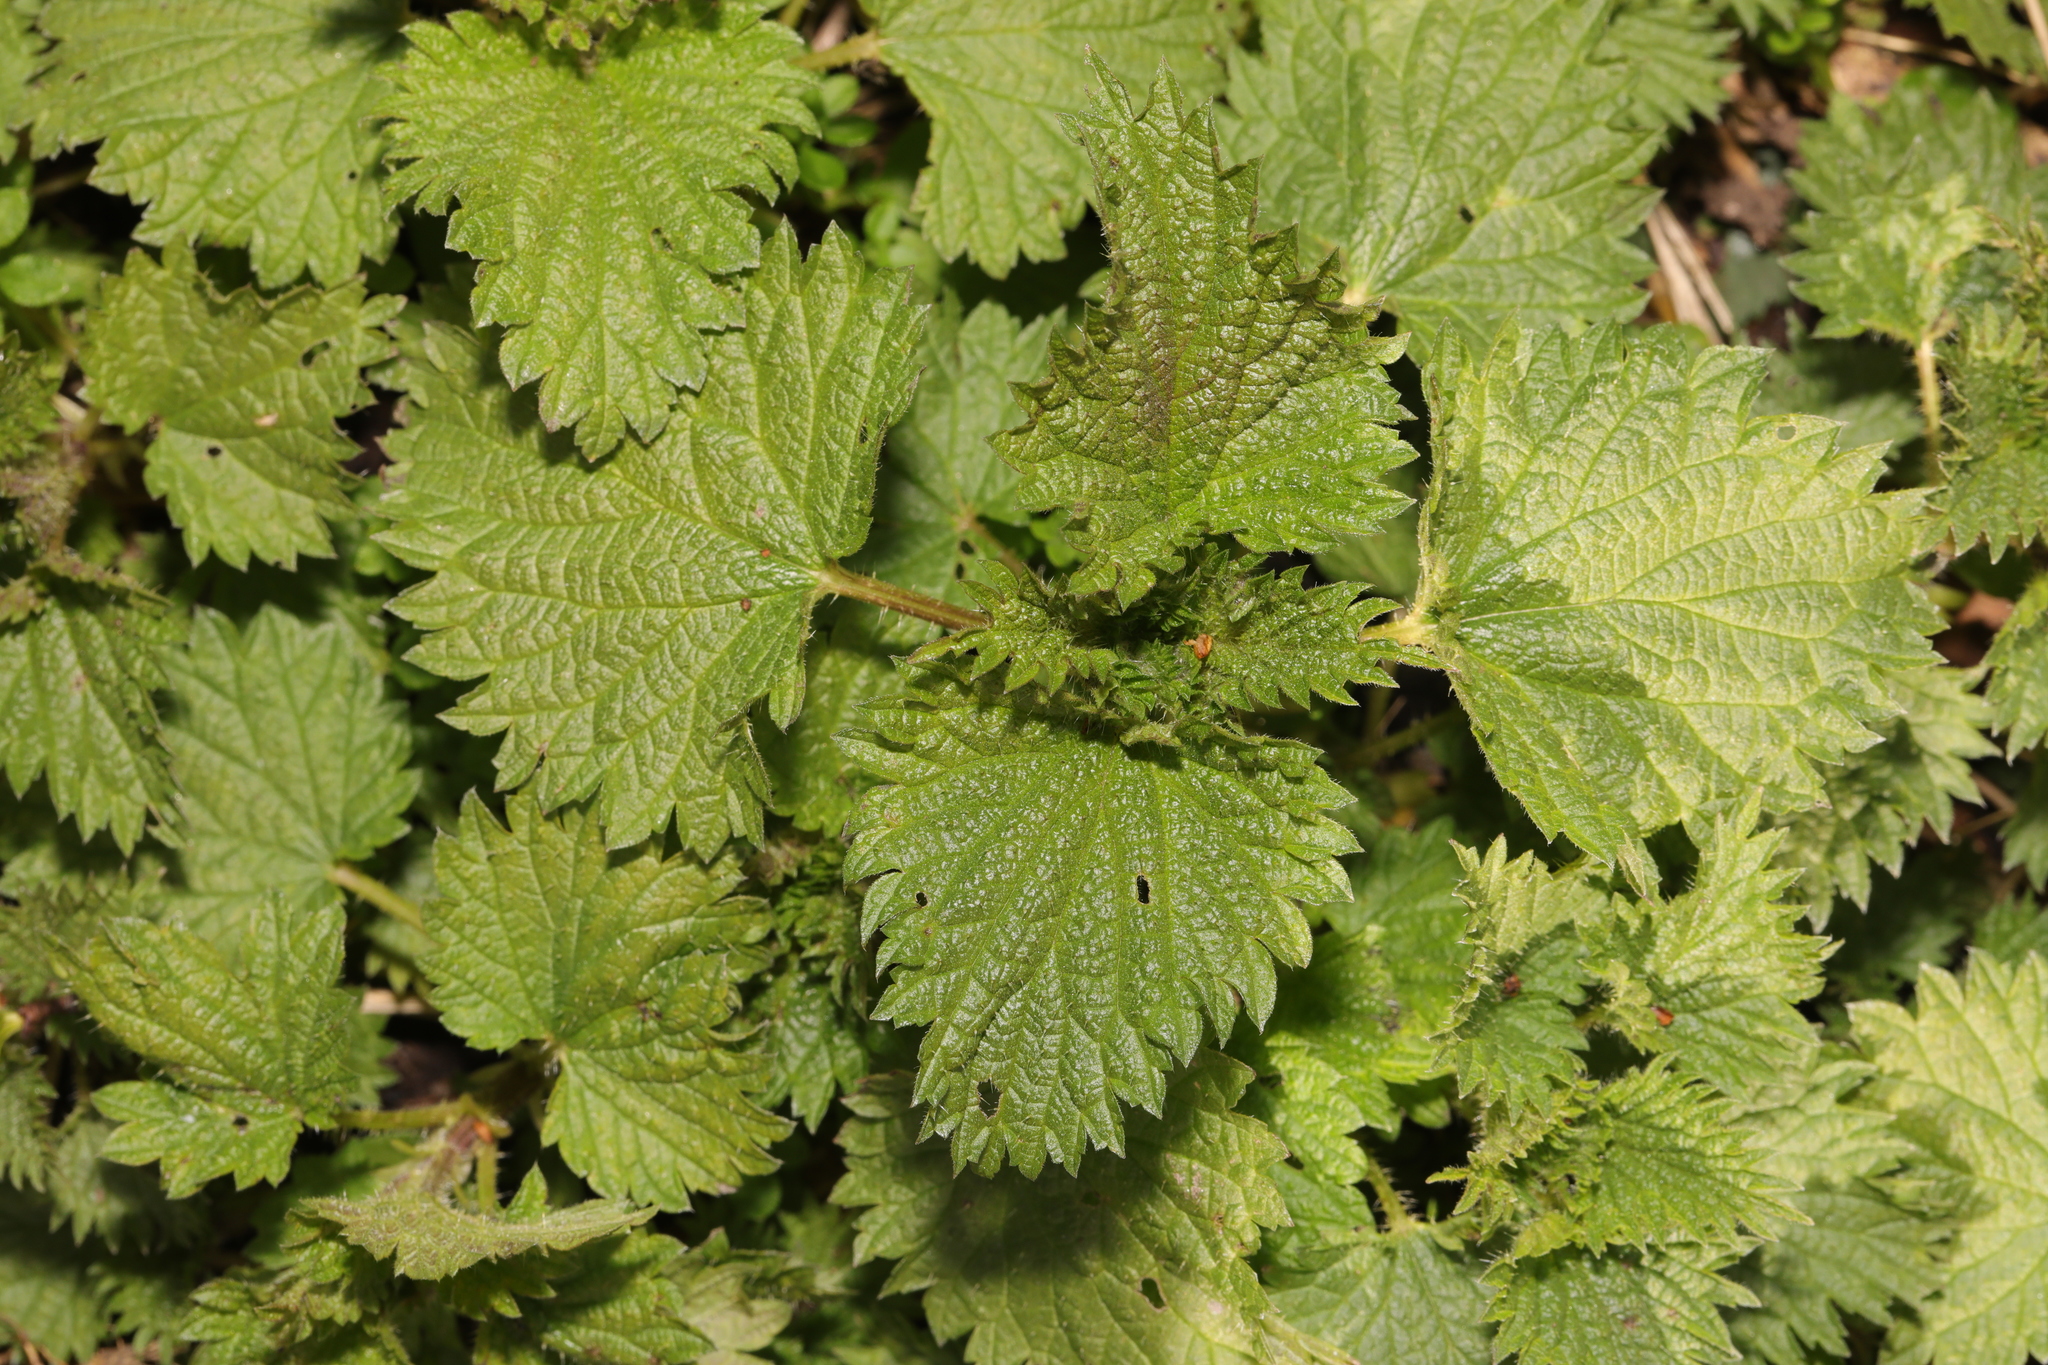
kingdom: Plantae
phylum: Tracheophyta
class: Magnoliopsida
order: Rosales
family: Urticaceae
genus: Urtica
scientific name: Urtica dioica
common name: Common nettle
